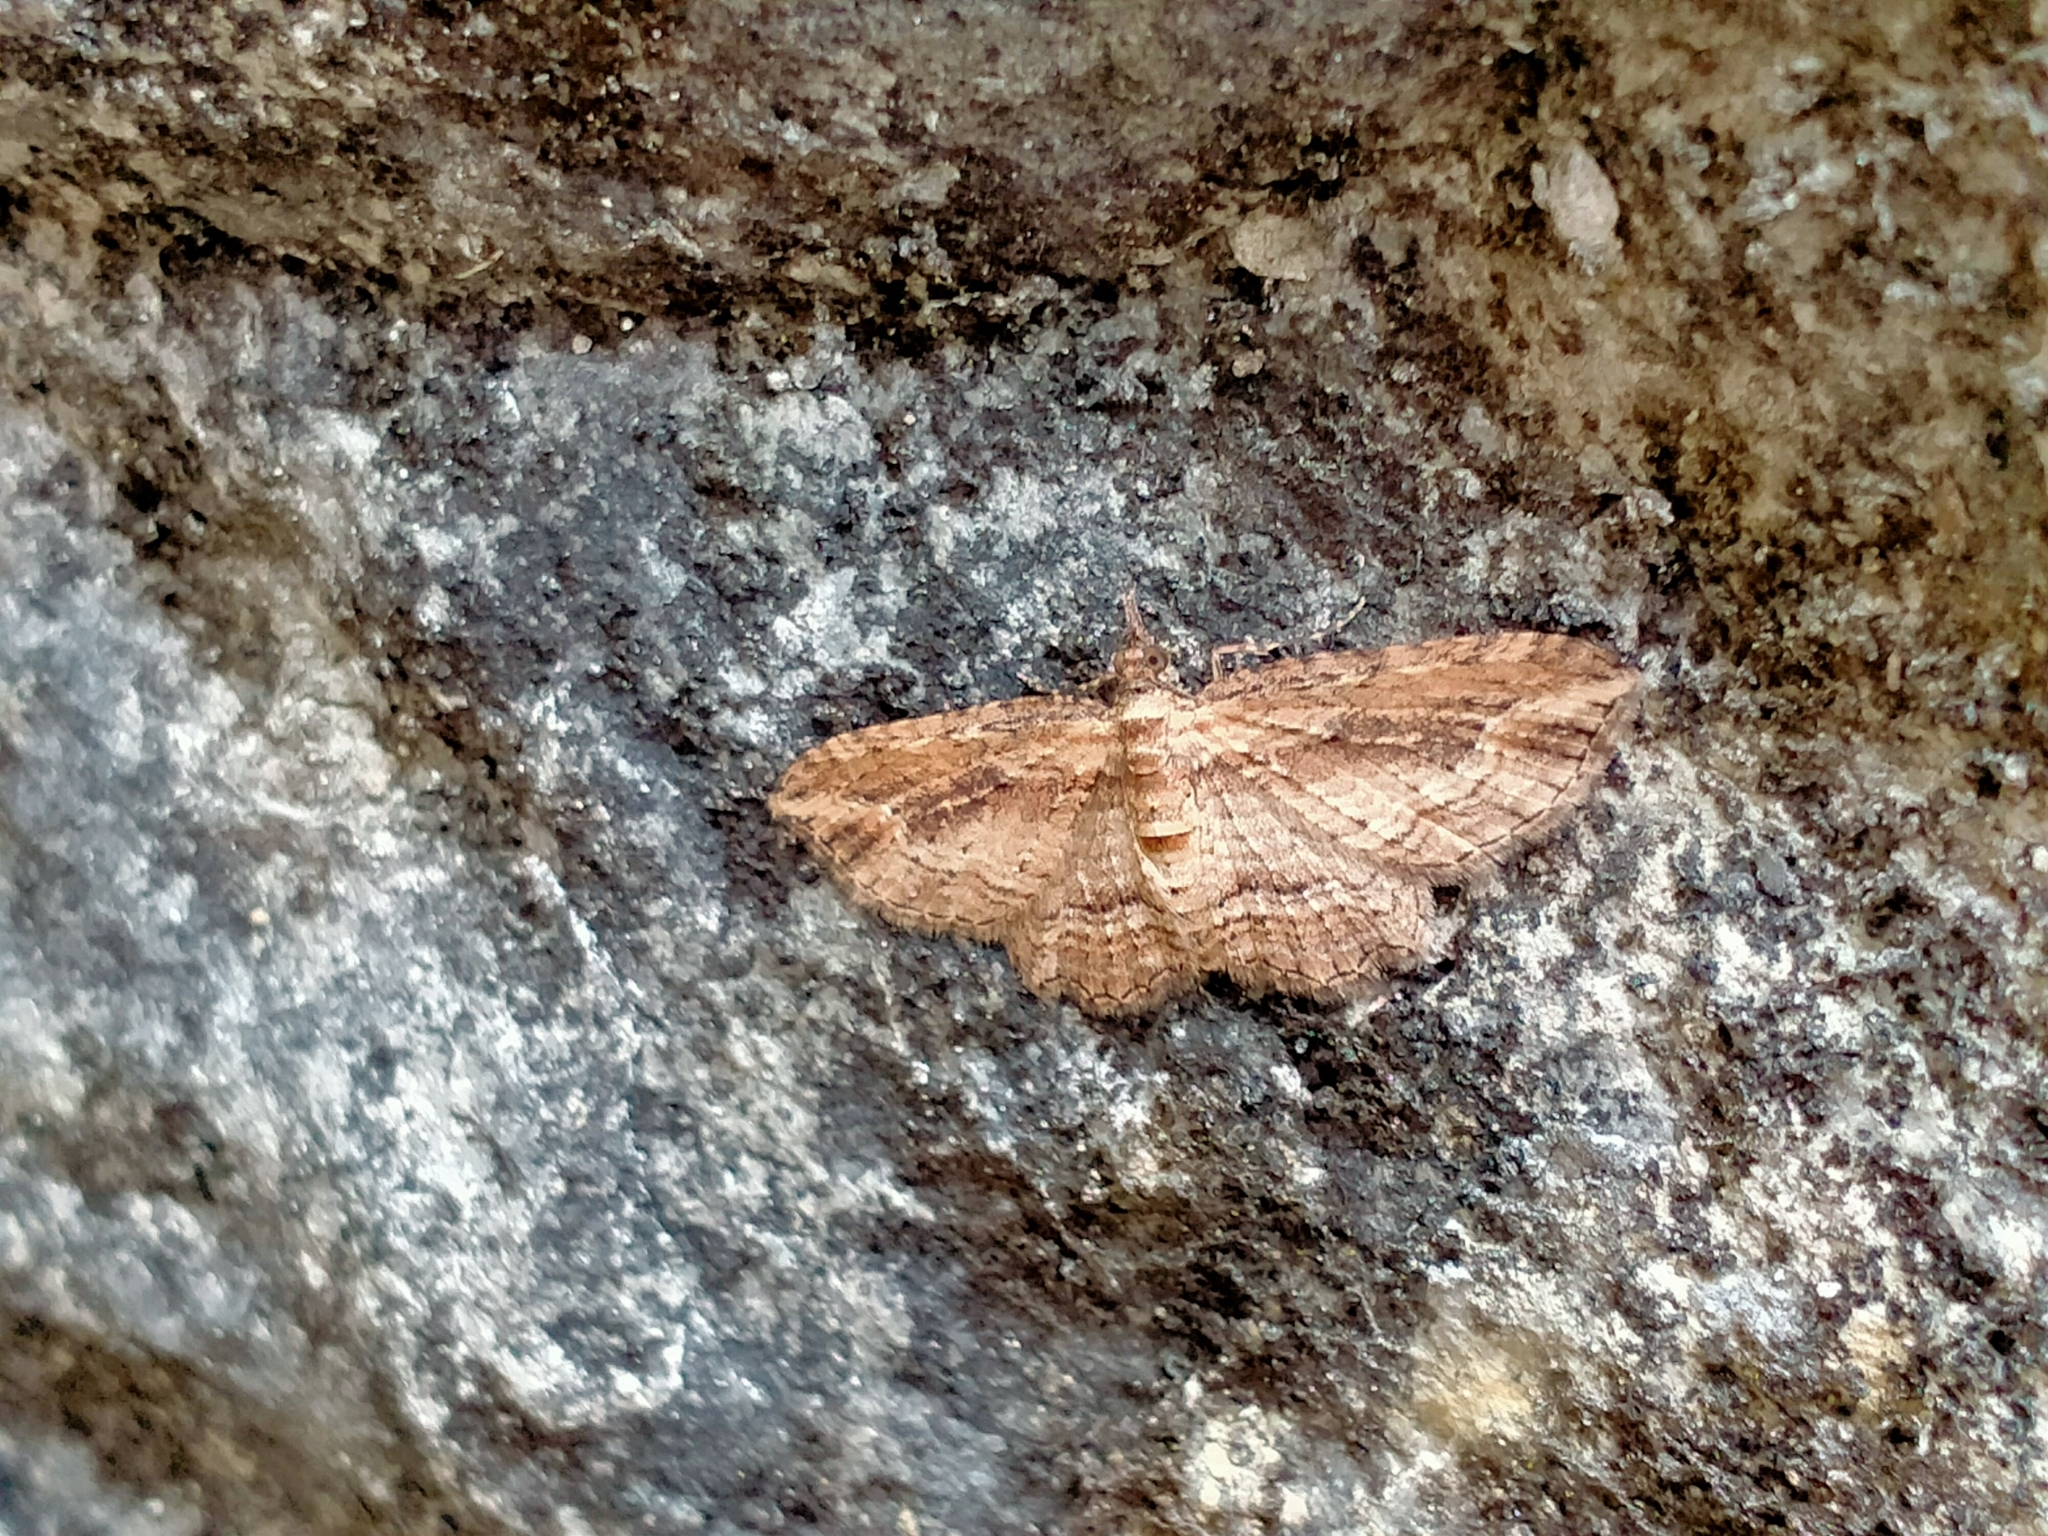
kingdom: Animalia
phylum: Arthropoda
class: Insecta
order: Lepidoptera
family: Geometridae
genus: Chloroclystis
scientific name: Chloroclystis filata
